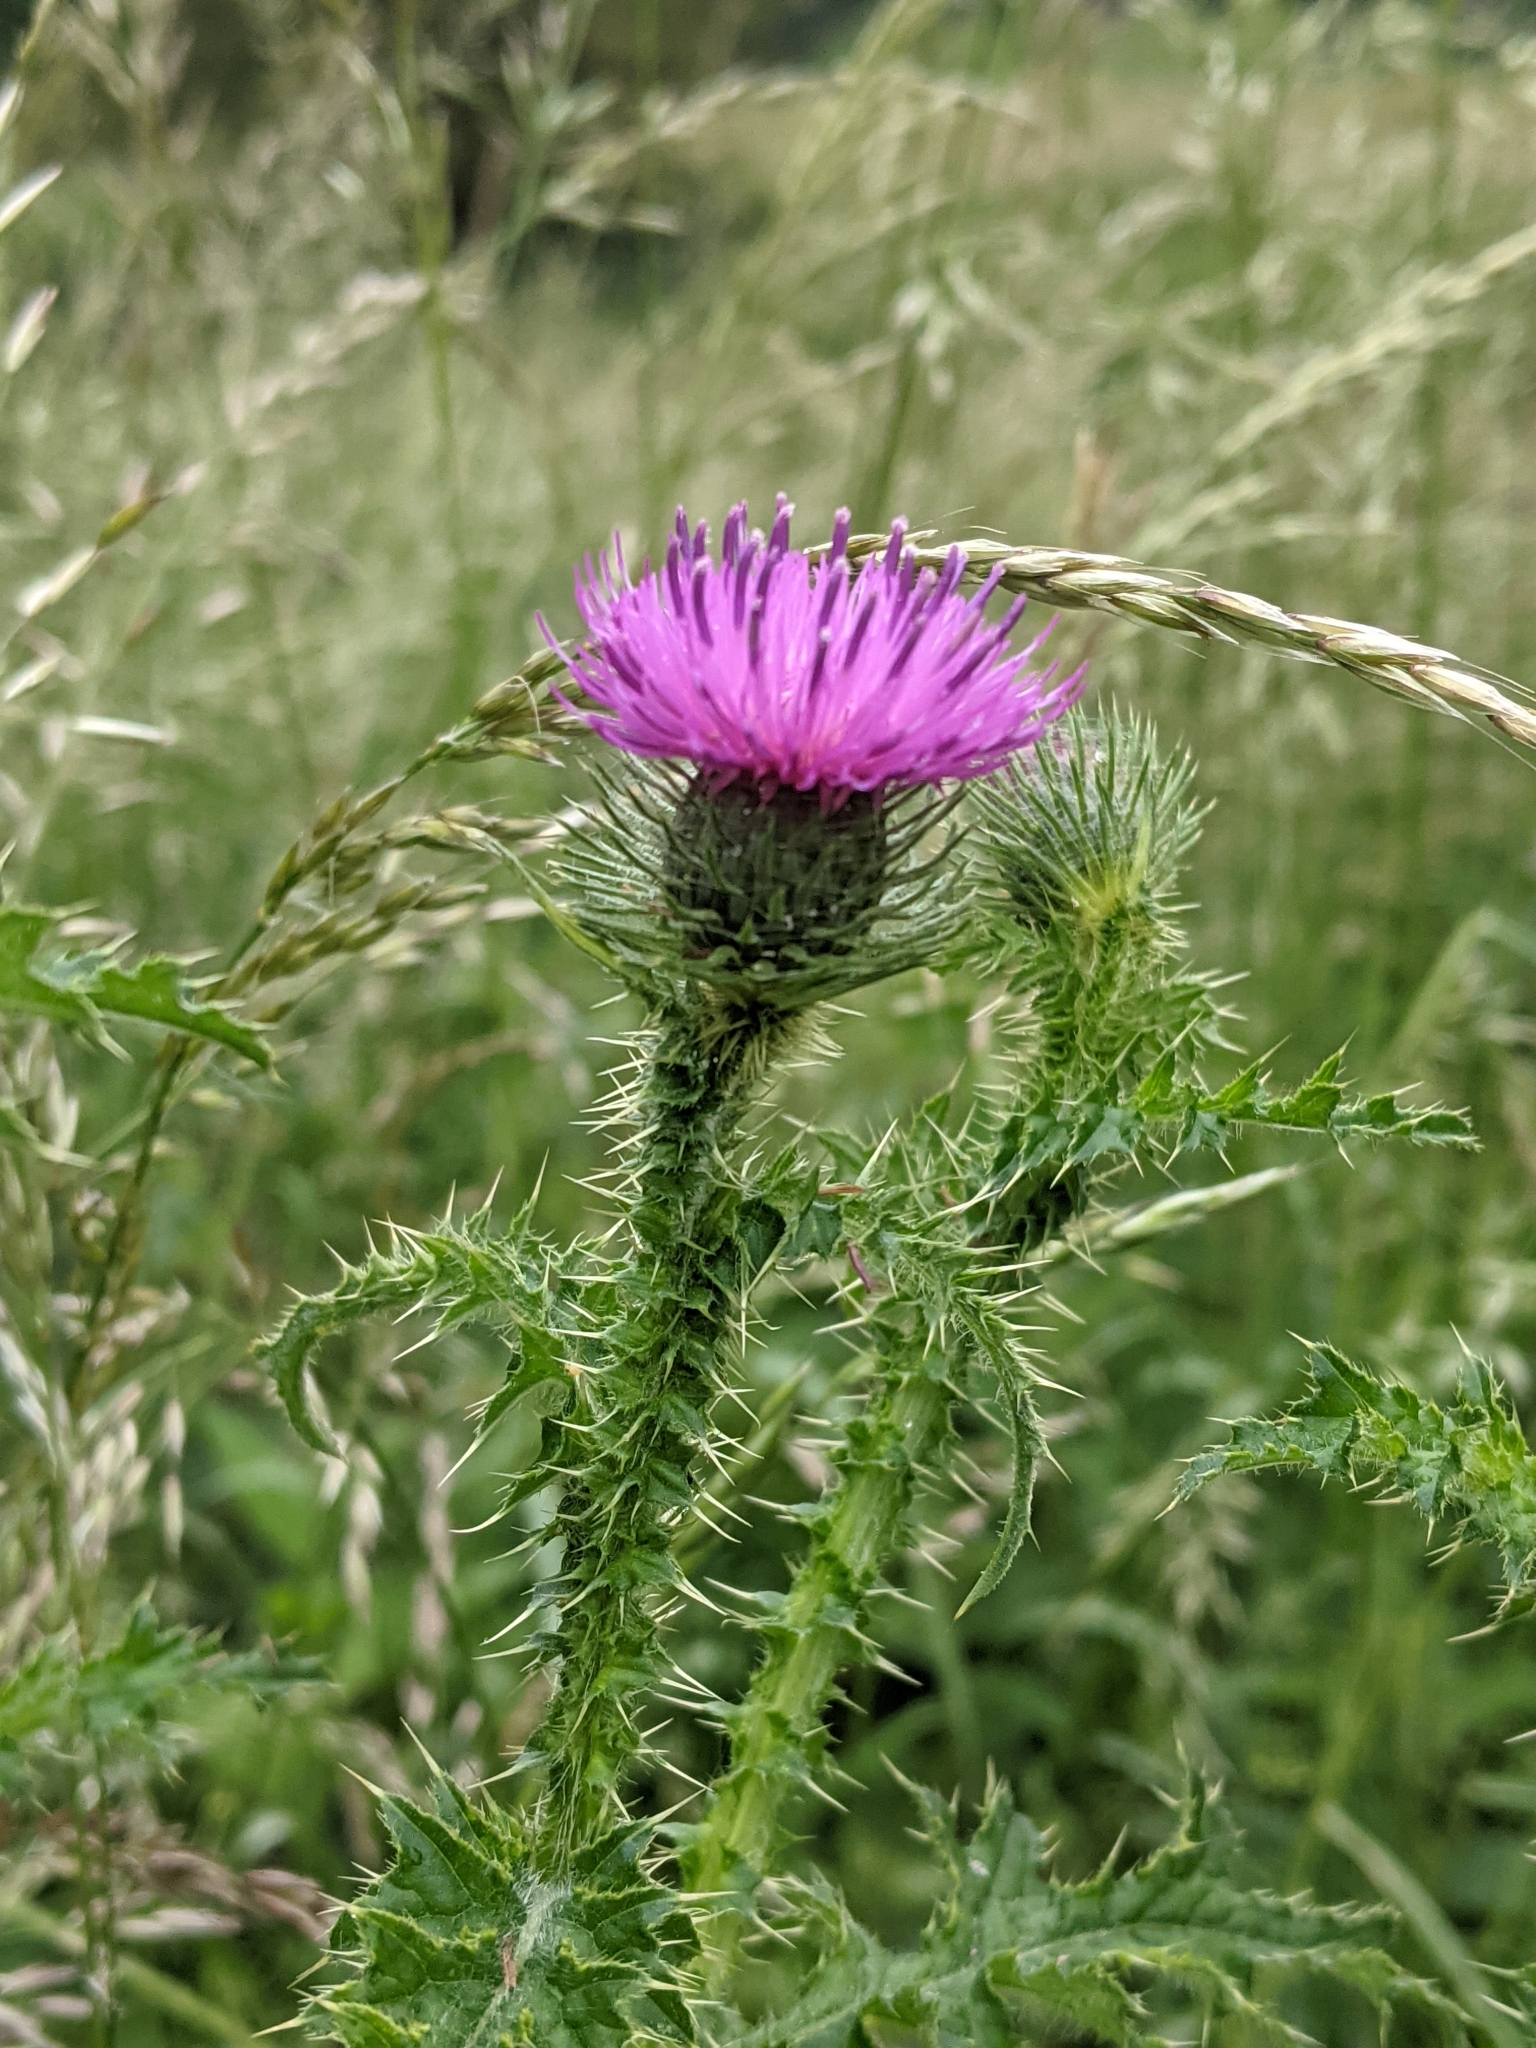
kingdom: Plantae
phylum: Tracheophyta
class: Magnoliopsida
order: Asterales
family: Asteraceae
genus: Carduus
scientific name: Carduus crispus
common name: Welted thistle
